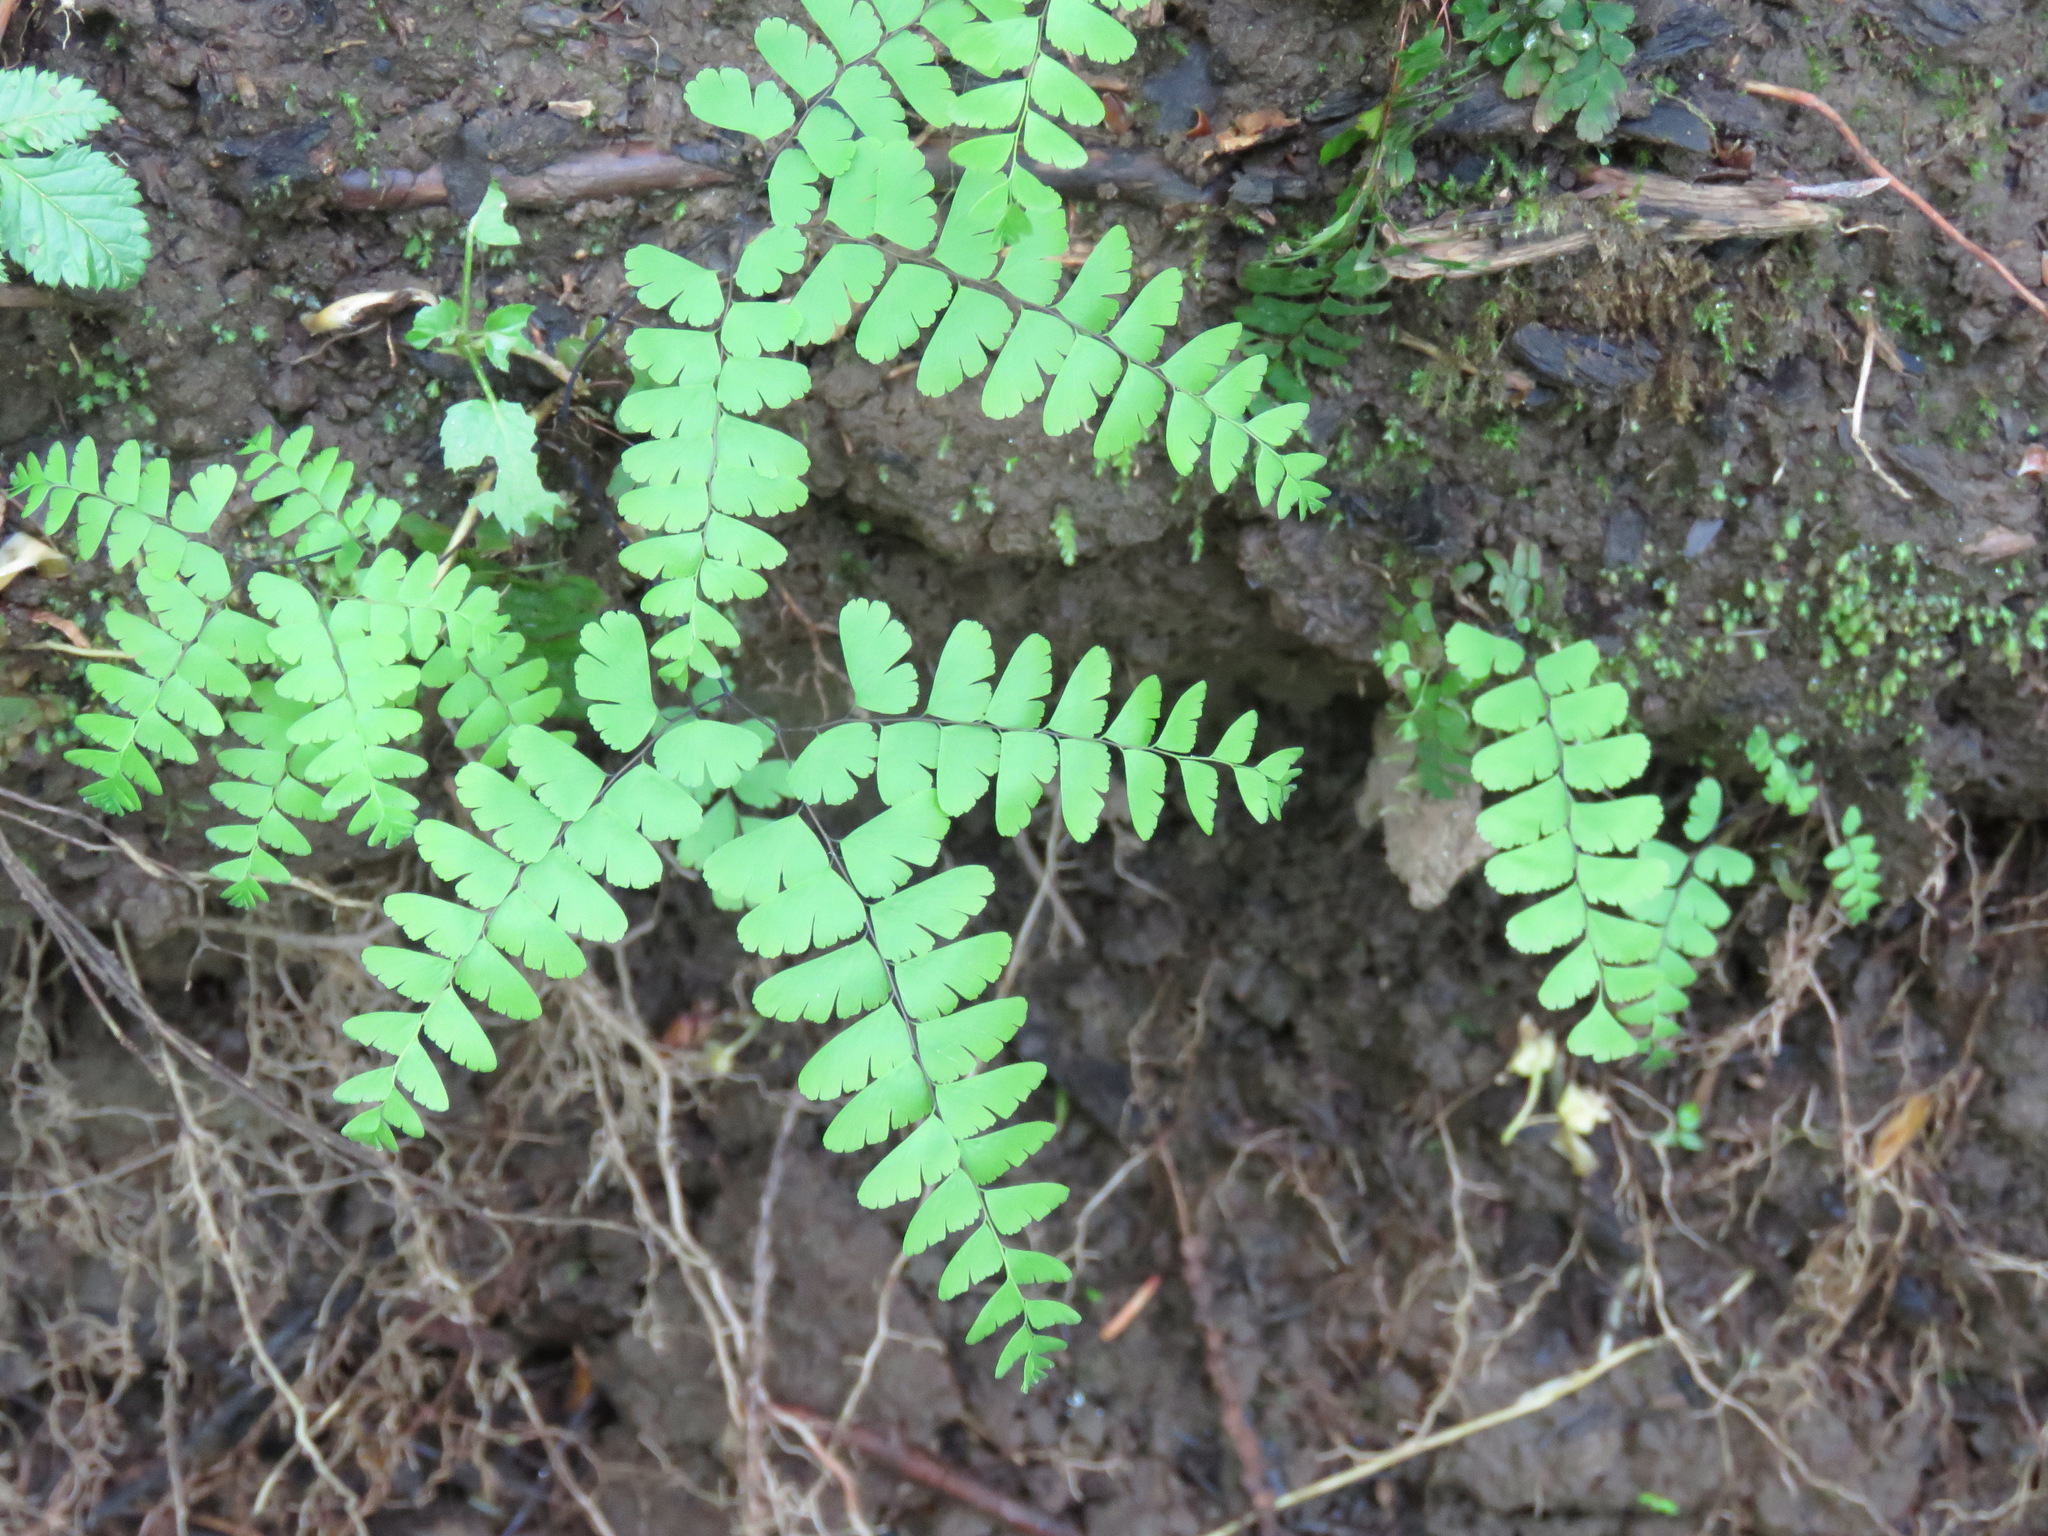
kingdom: Plantae
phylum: Tracheophyta
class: Polypodiopsida
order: Polypodiales
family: Pteridaceae
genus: Adiantum
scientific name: Adiantum aleuticum
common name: Aleutian maidenhair fern
